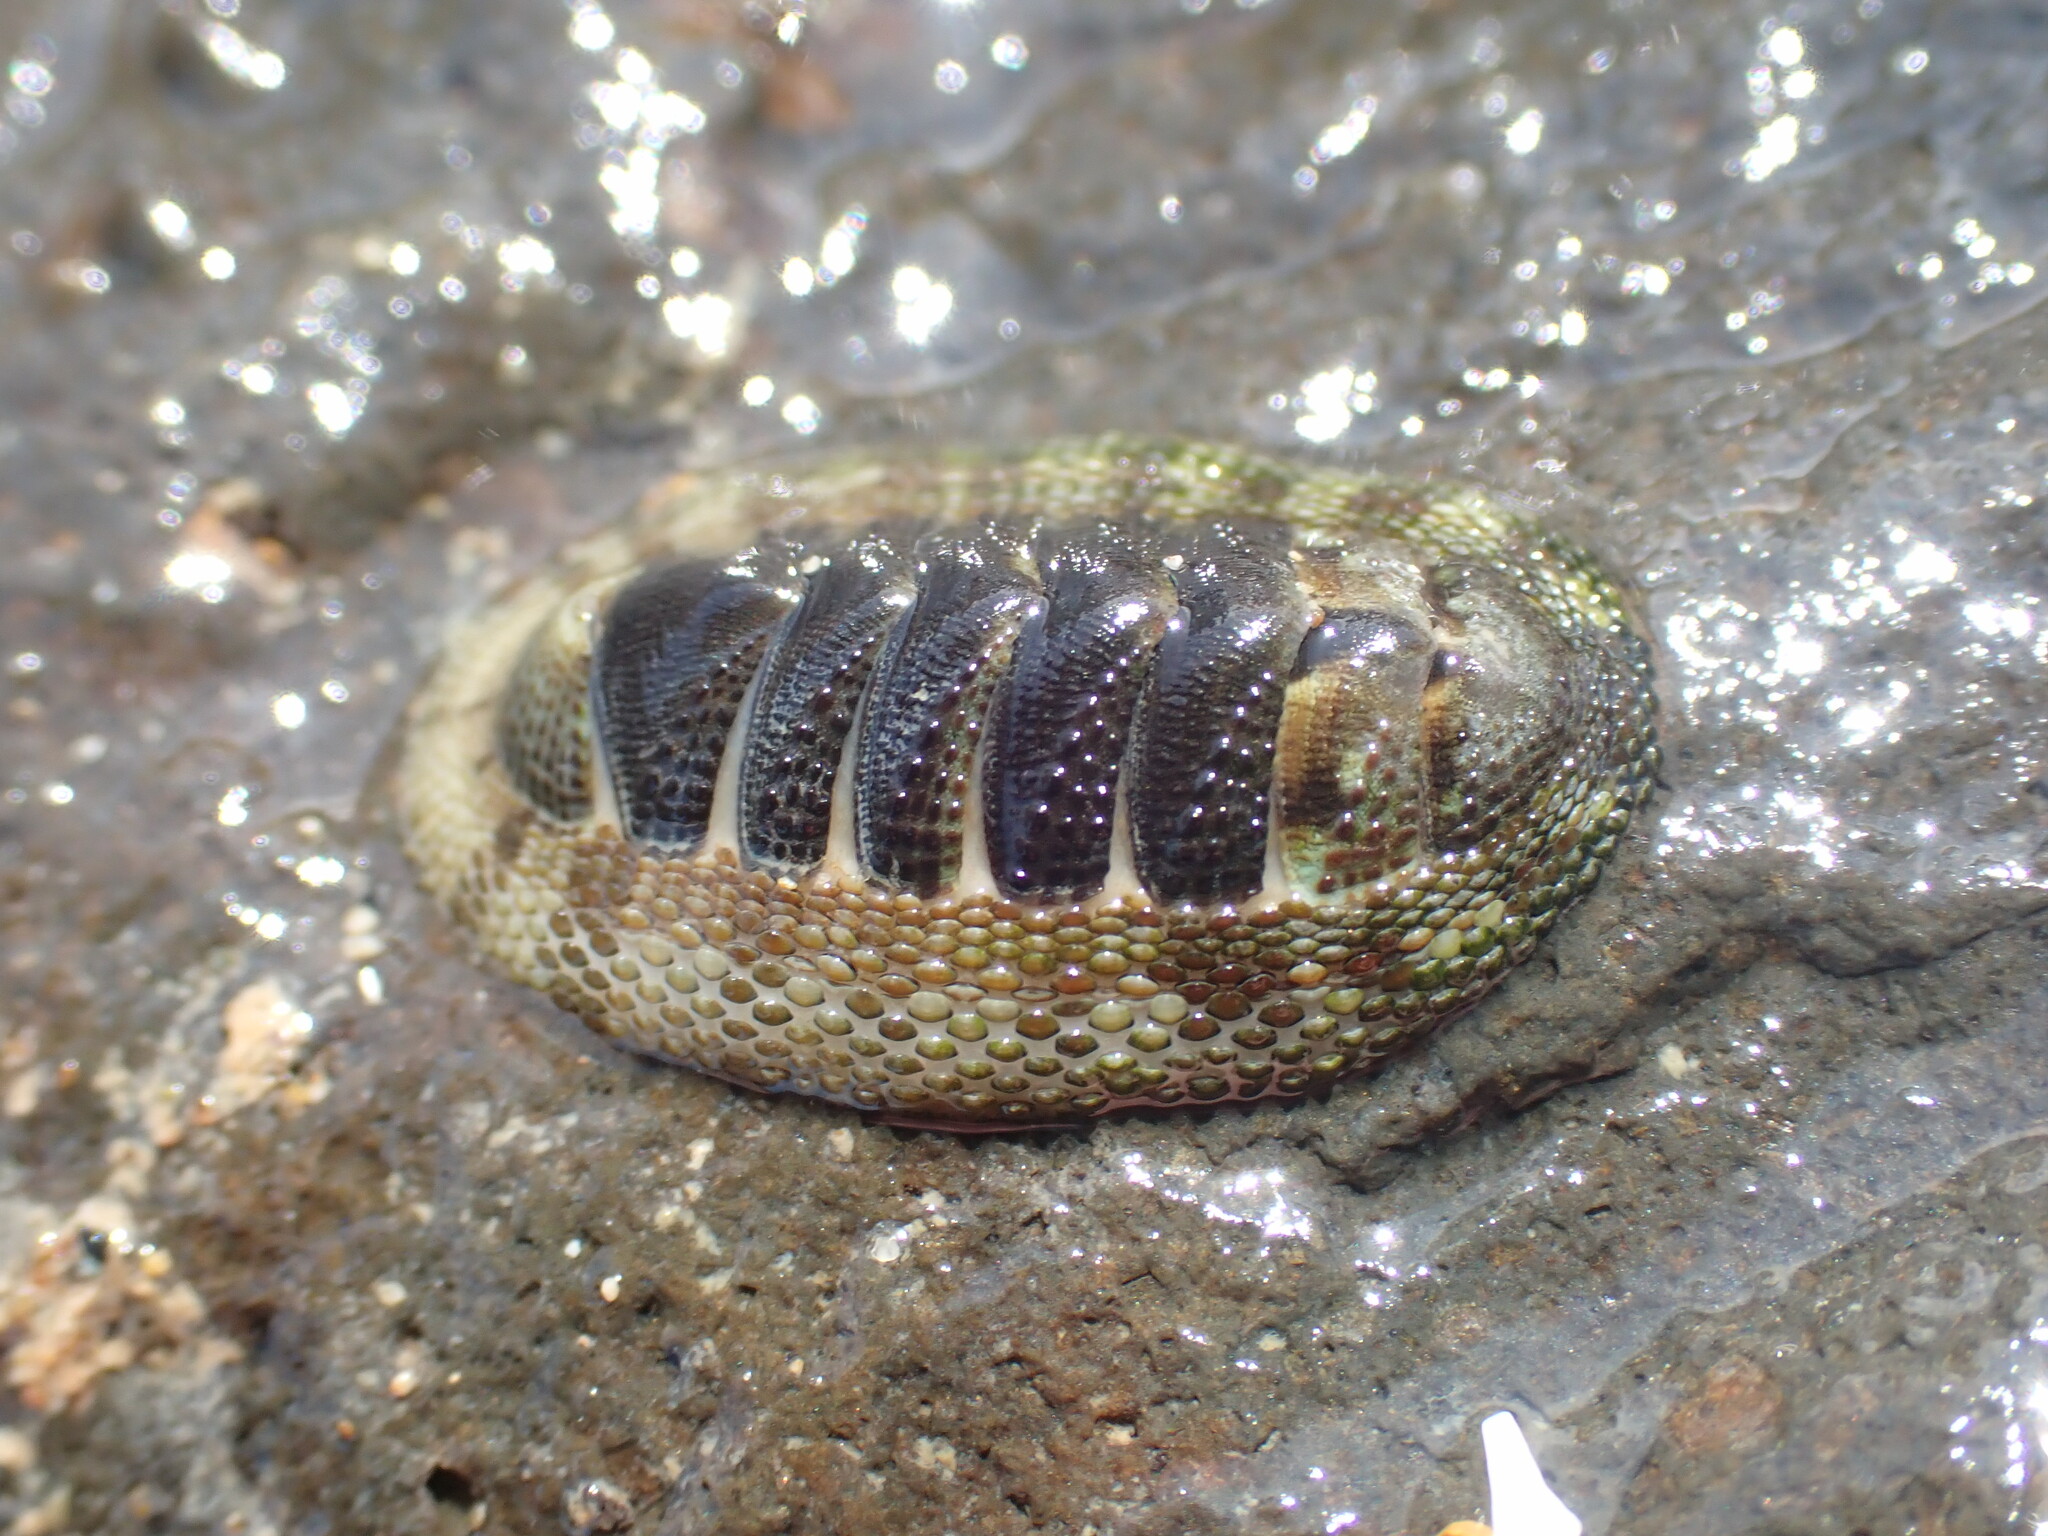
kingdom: Animalia
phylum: Mollusca
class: Polyplacophora
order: Chitonida
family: Chitonidae
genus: Sypharochiton
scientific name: Sypharochiton pelliserpentis
